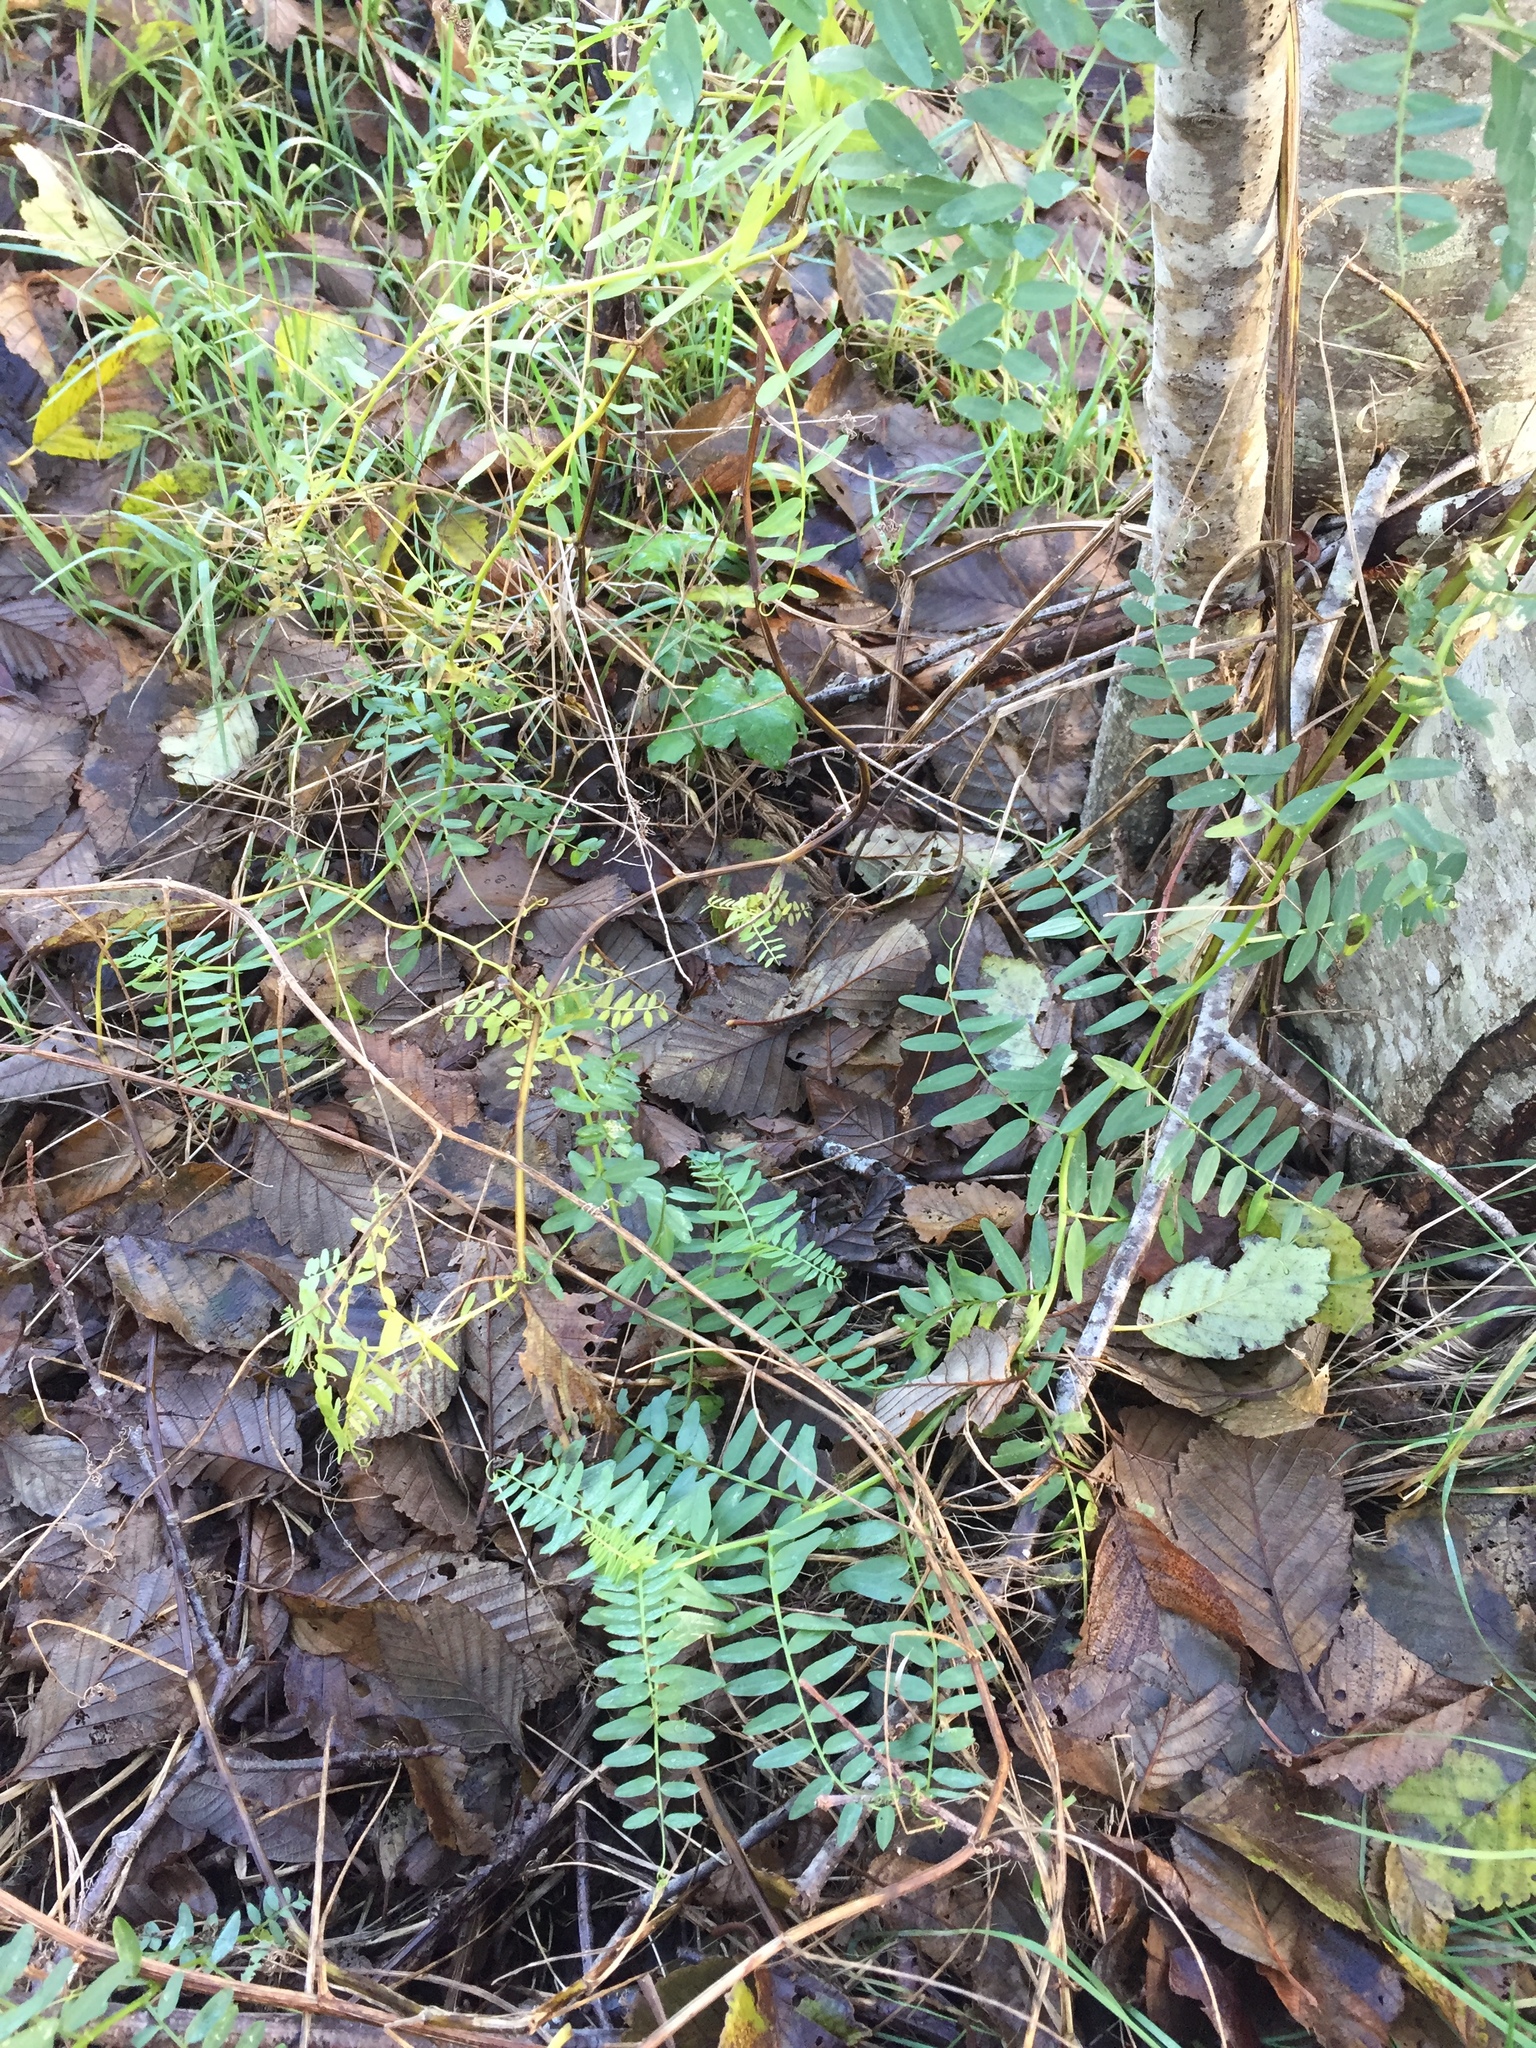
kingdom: Plantae
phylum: Tracheophyta
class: Magnoliopsida
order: Fabales
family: Fabaceae
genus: Vicia
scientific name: Vicia
